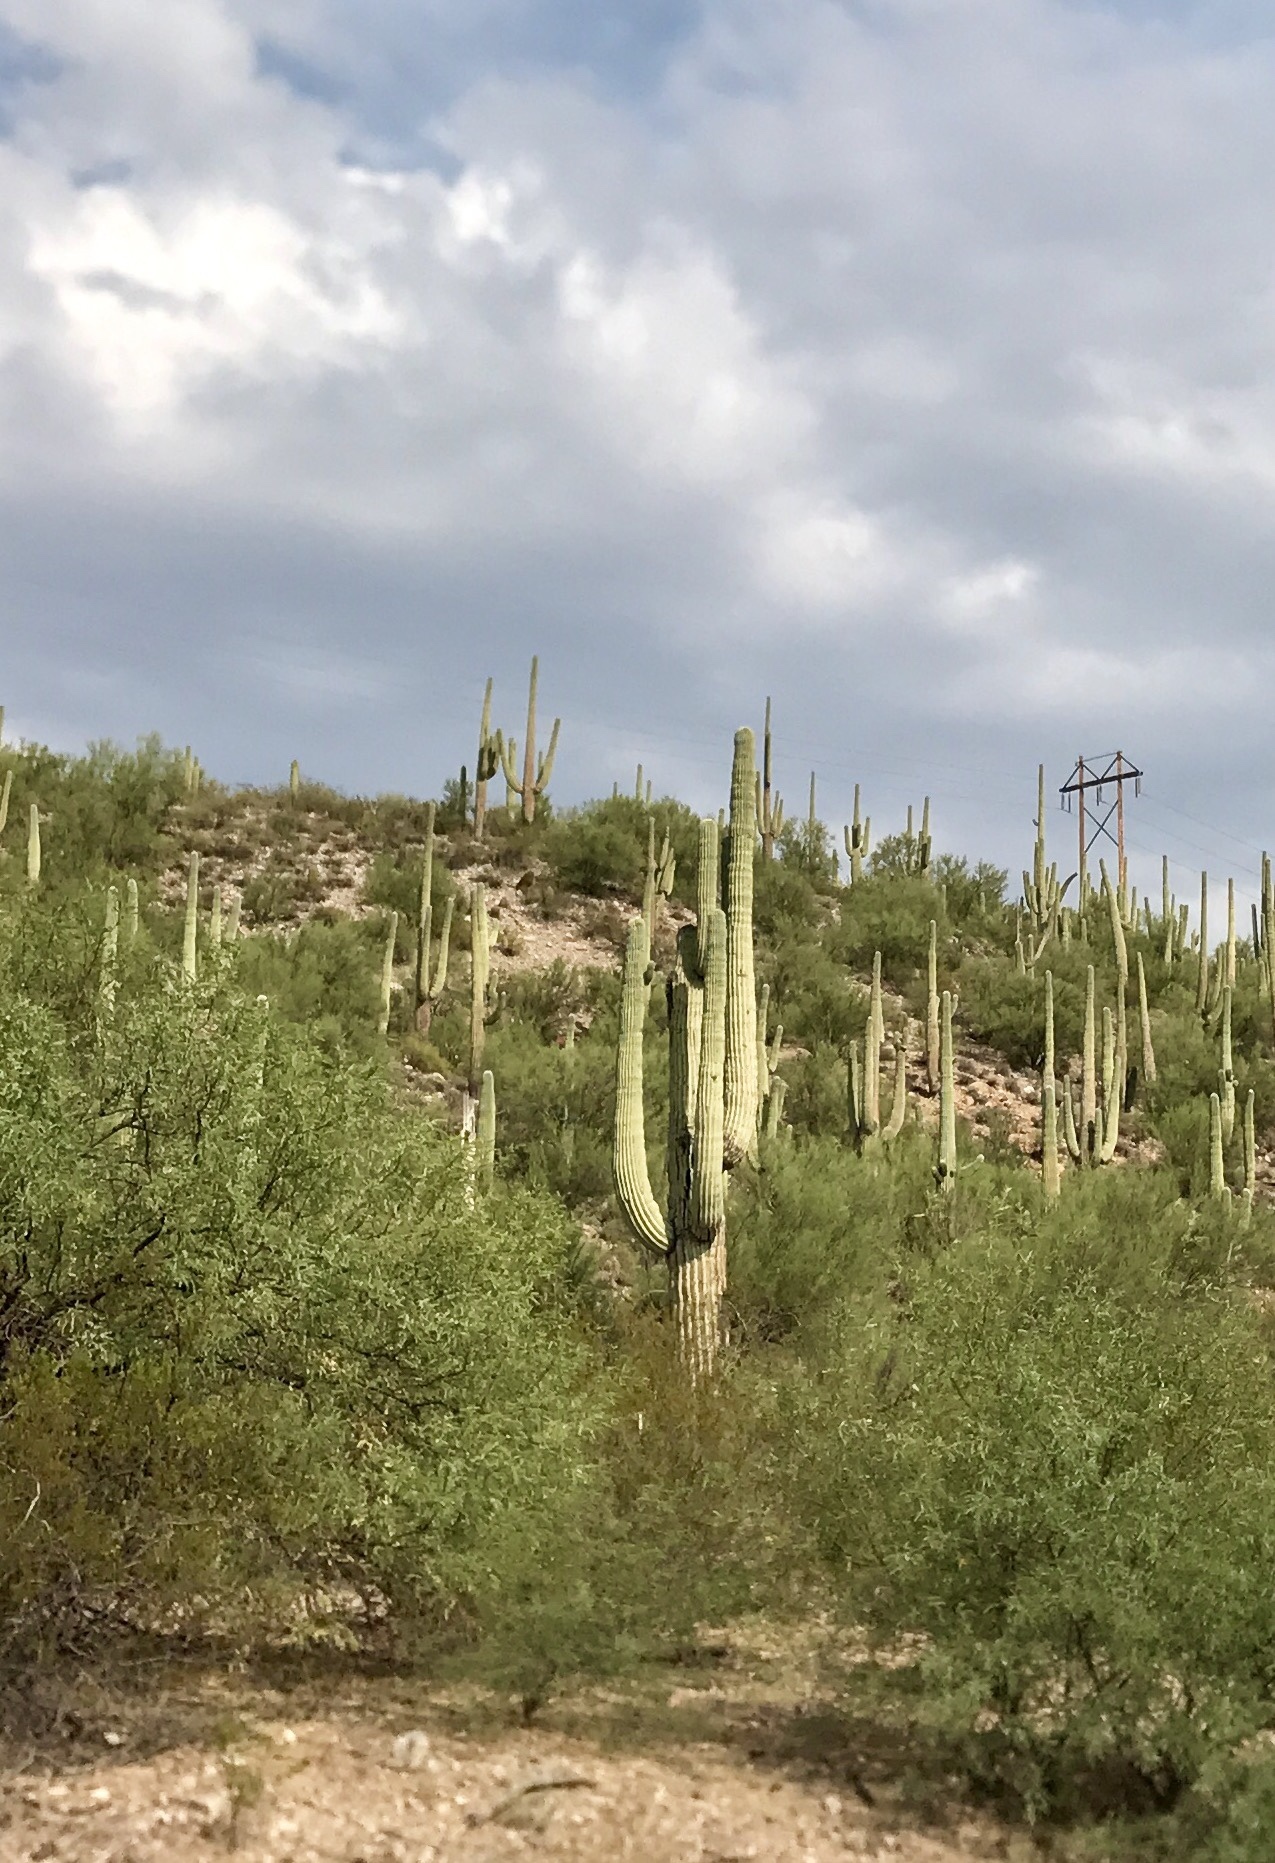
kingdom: Plantae
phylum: Tracheophyta
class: Magnoliopsida
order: Caryophyllales
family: Cactaceae
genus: Carnegiea
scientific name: Carnegiea gigantea
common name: Saguaro
